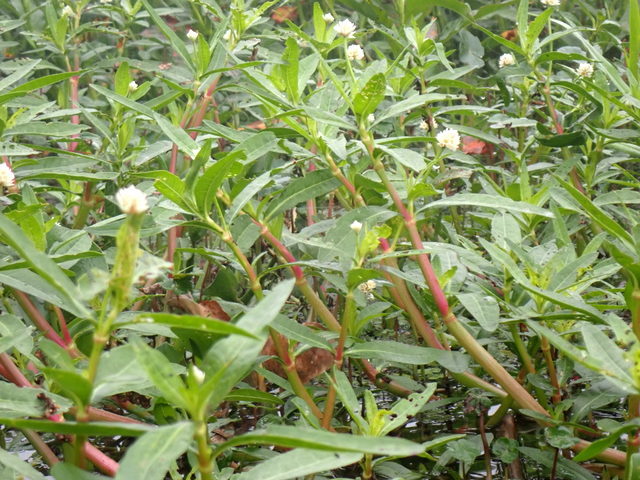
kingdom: Plantae
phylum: Tracheophyta
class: Magnoliopsida
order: Caryophyllales
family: Amaranthaceae
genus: Alternanthera
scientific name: Alternanthera philoxeroides
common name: Alligatorweed
